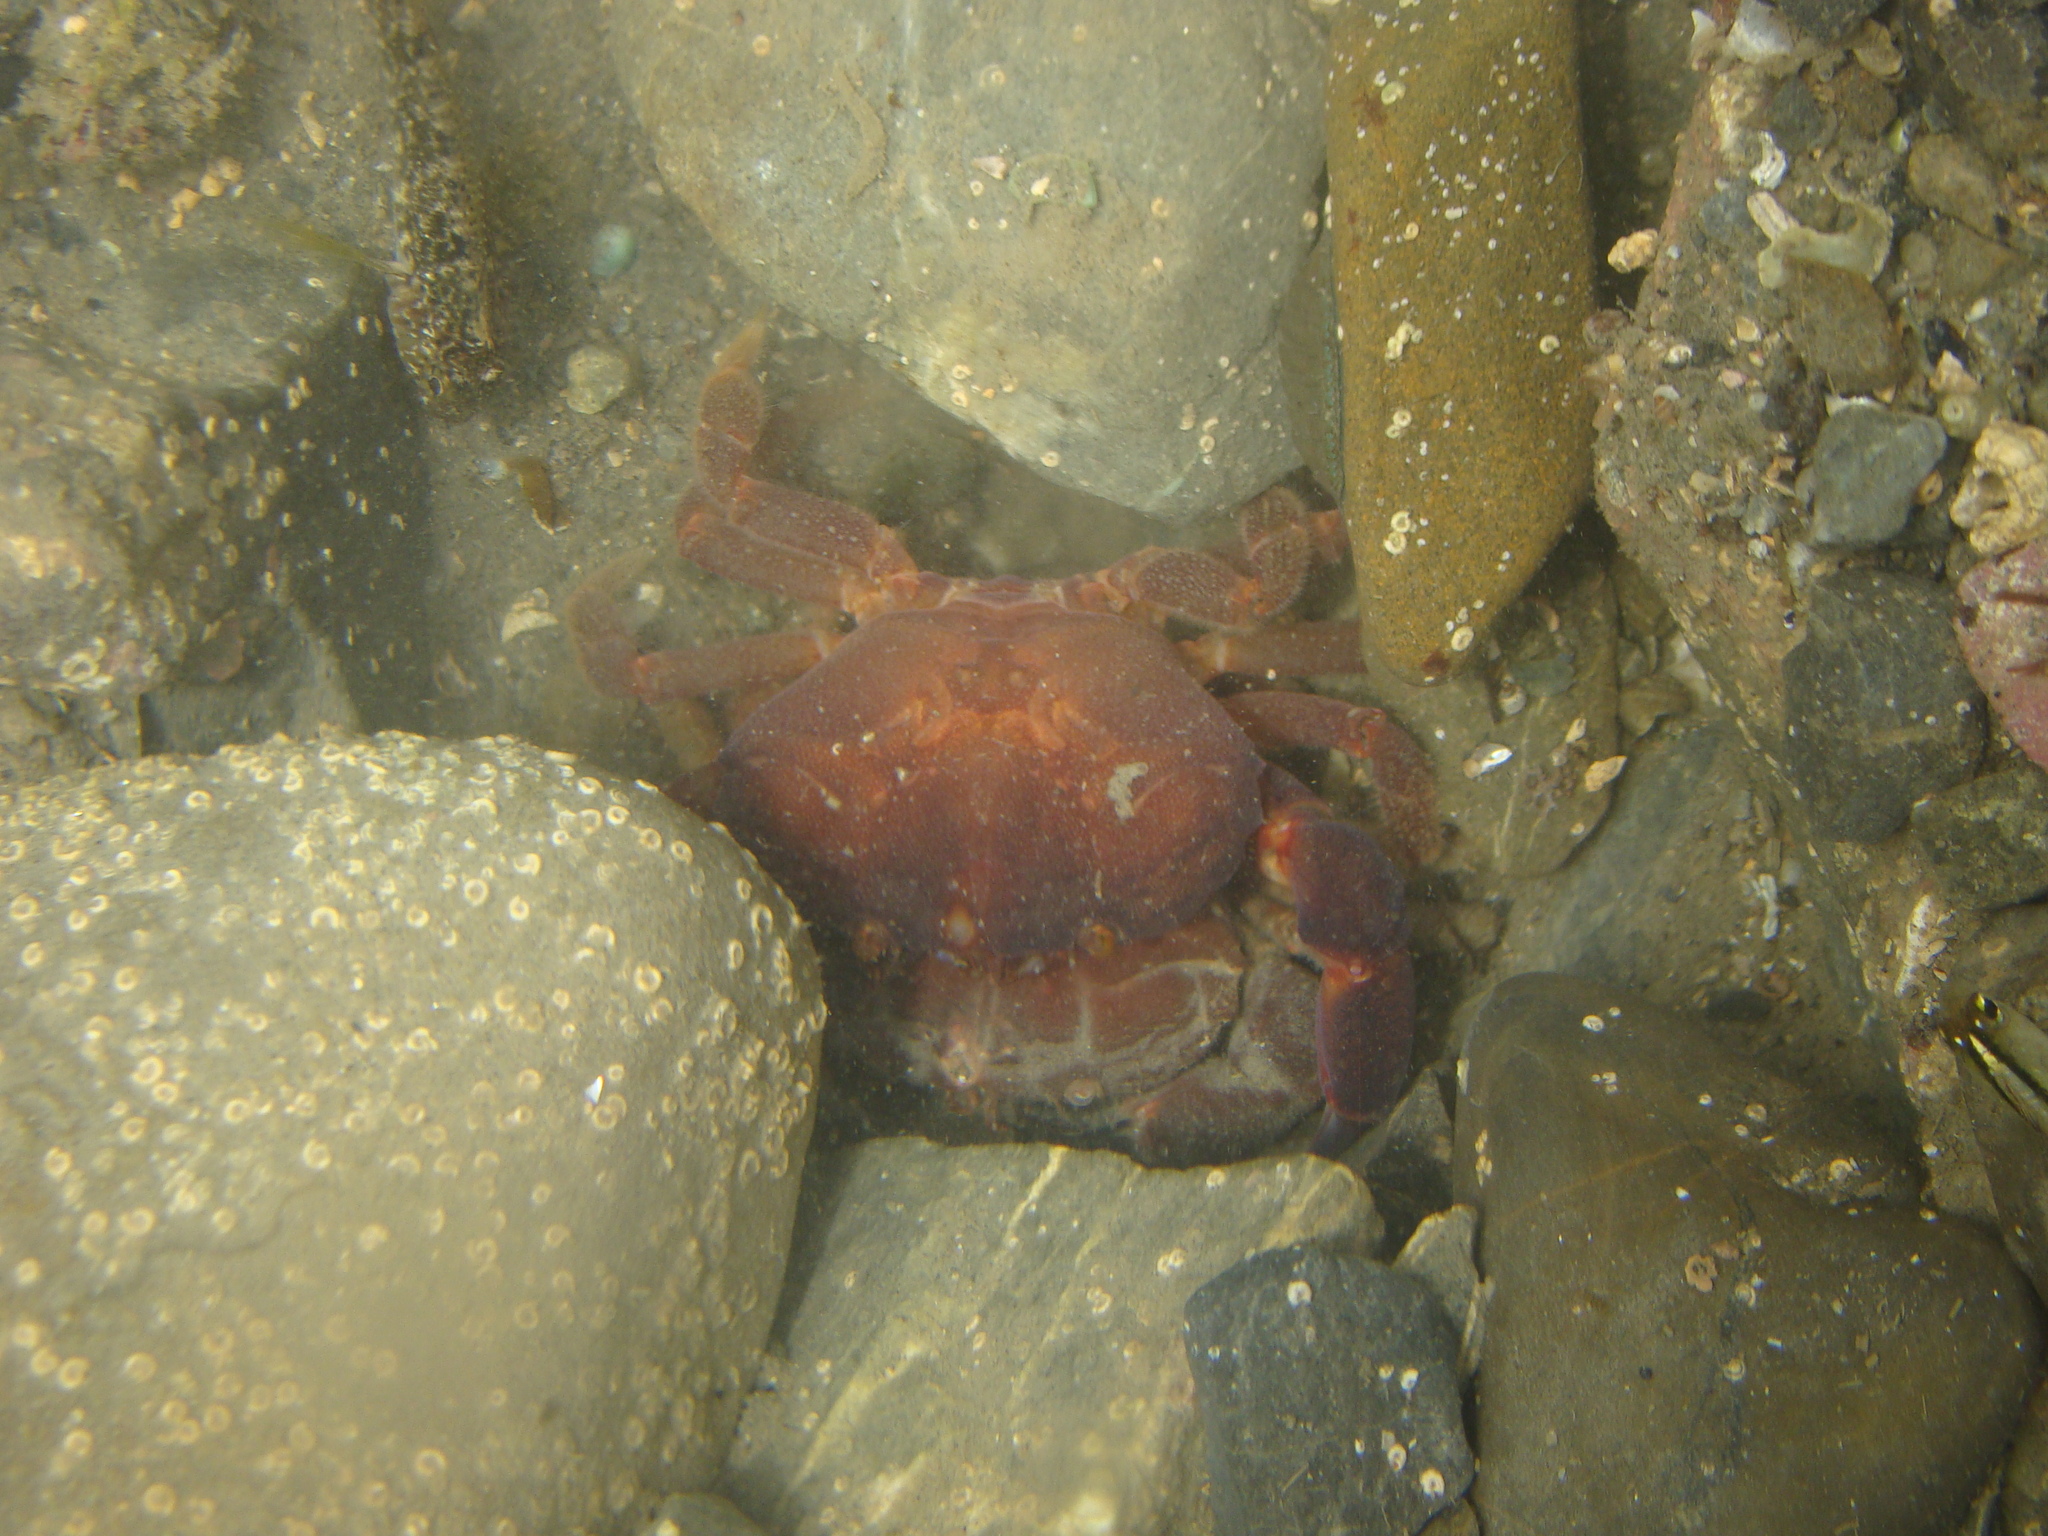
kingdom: Animalia
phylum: Arthropoda
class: Malacostraca
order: Decapoda
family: Oziidae
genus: Ozius
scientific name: Ozius deplanatus
